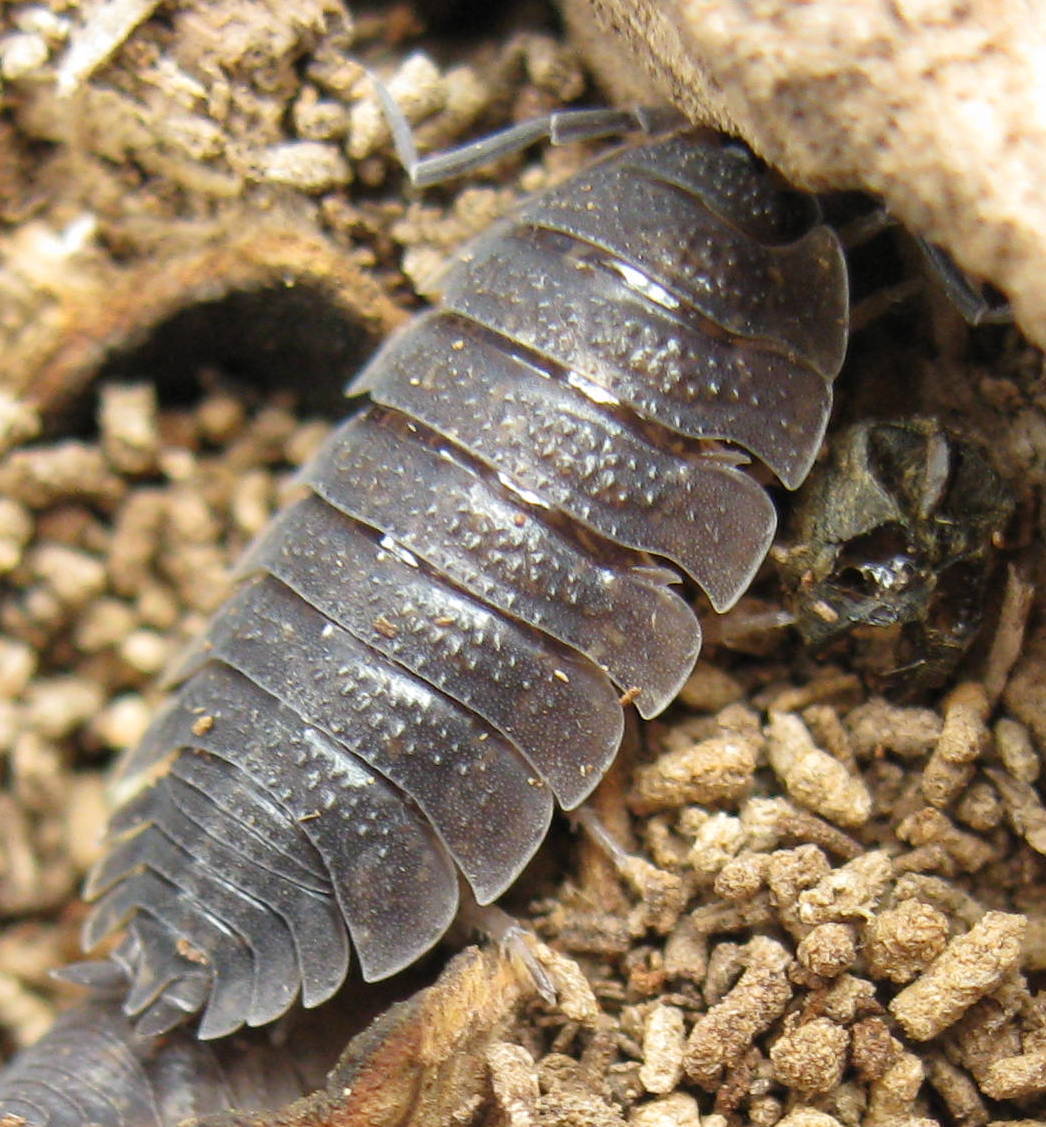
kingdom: Animalia
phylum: Arthropoda
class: Malacostraca
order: Isopoda
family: Porcellionidae
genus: Porcellio
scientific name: Porcellio scaber
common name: Common rough woodlouse
